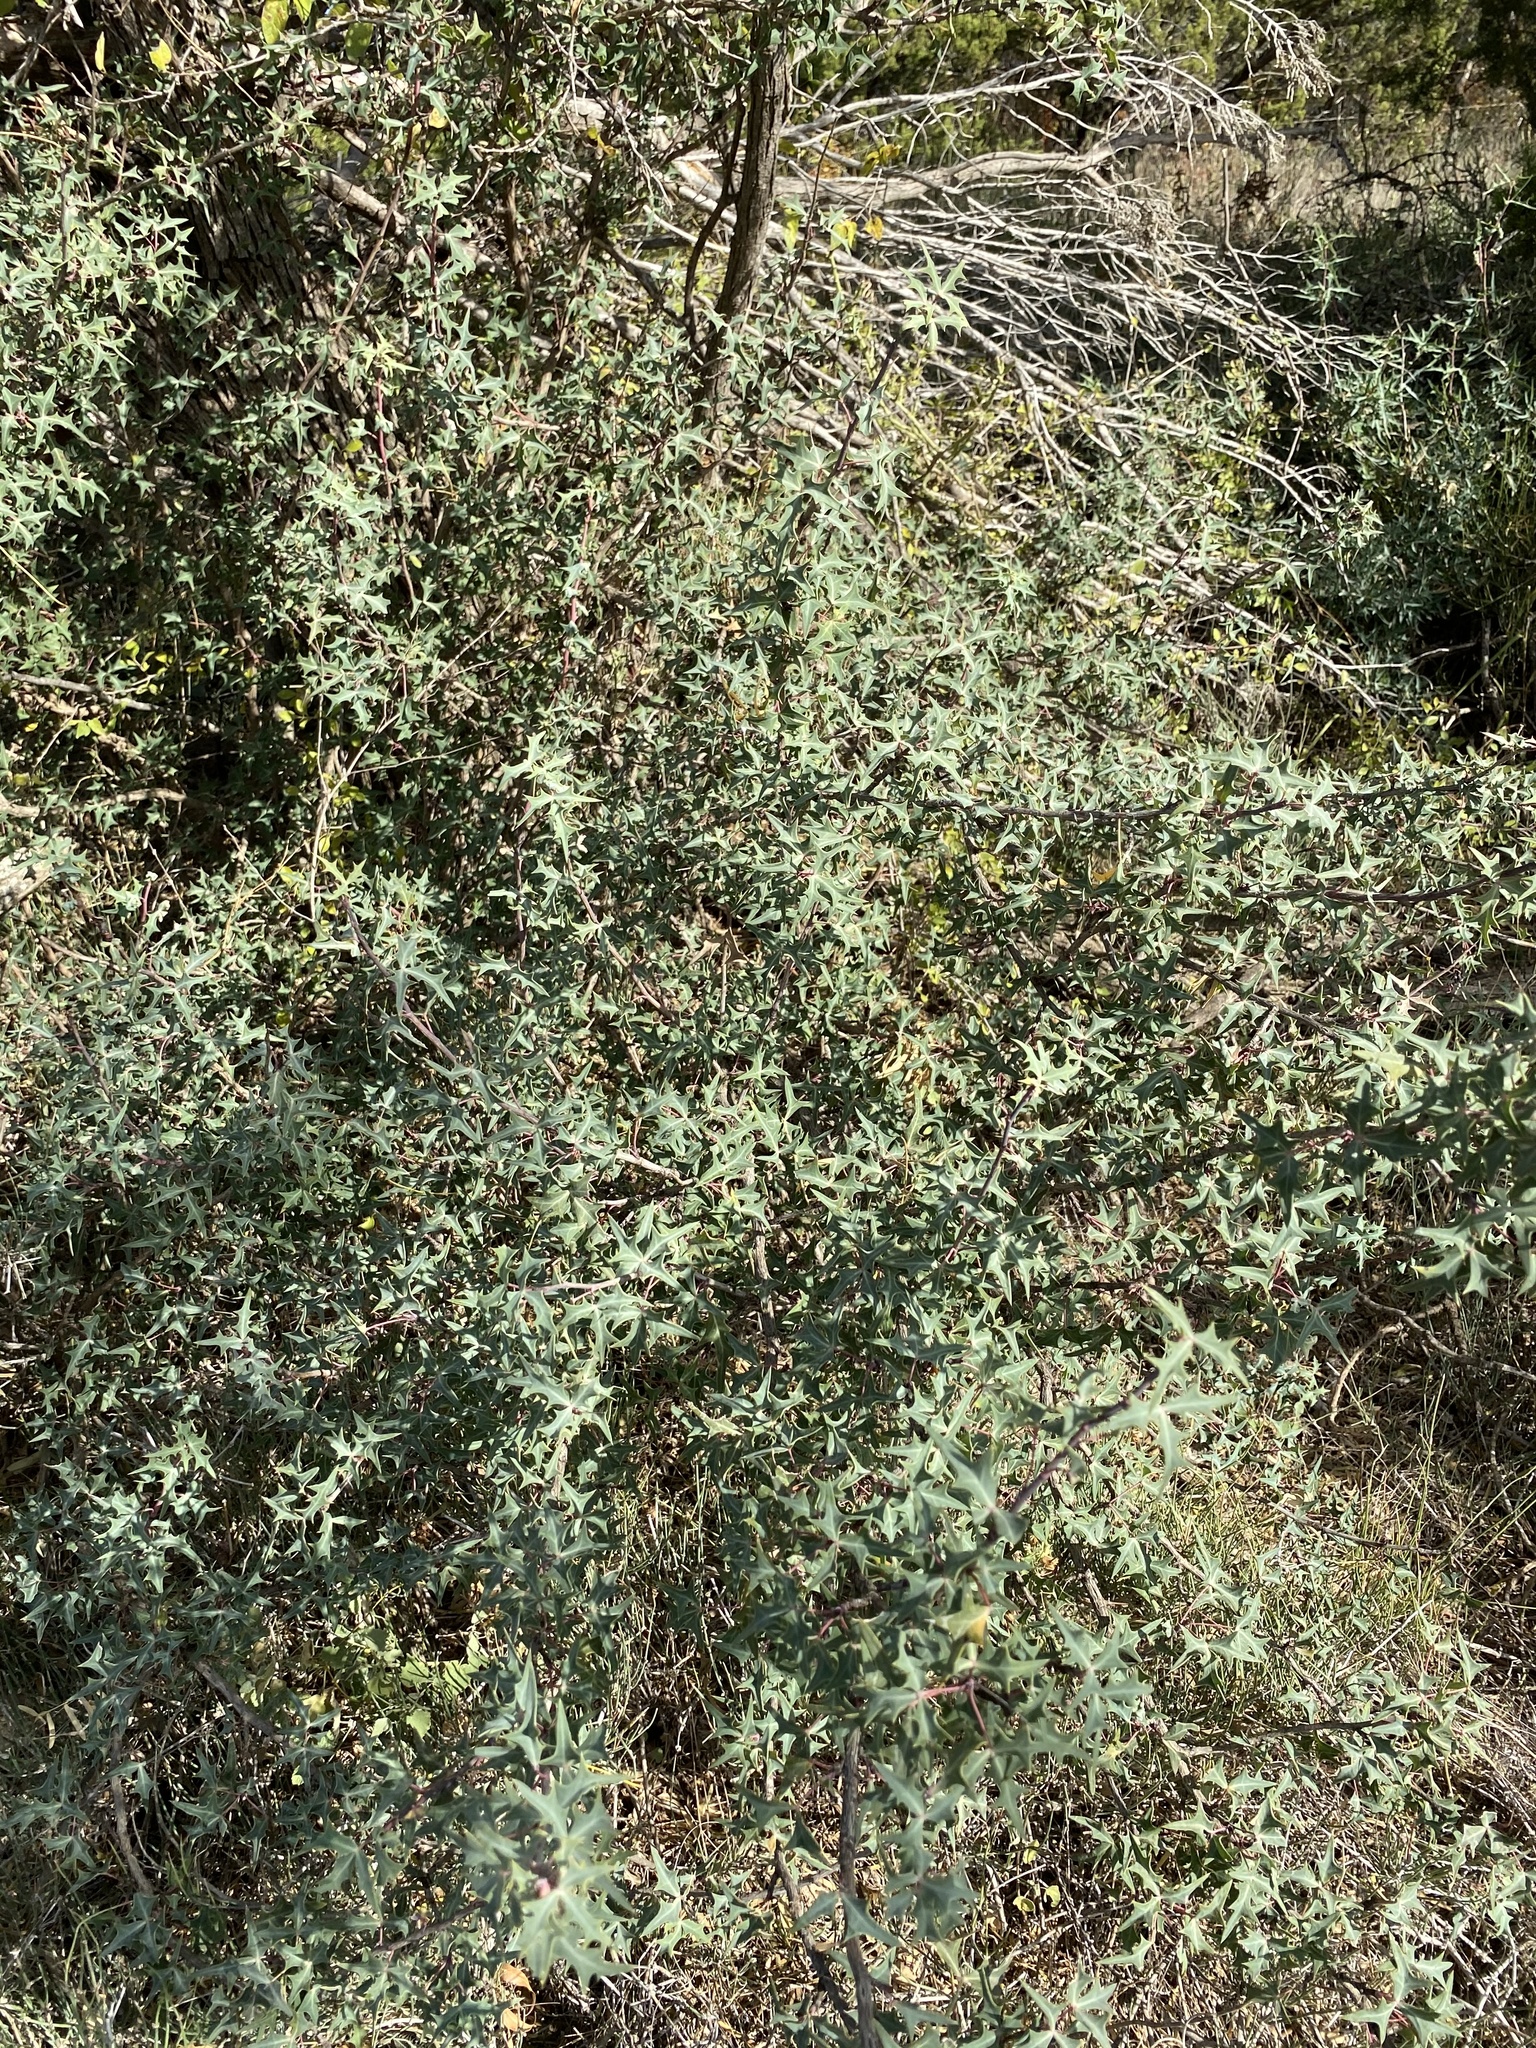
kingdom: Plantae
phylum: Tracheophyta
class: Magnoliopsida
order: Ranunculales
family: Berberidaceae
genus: Alloberberis
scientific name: Alloberberis trifoliolata
